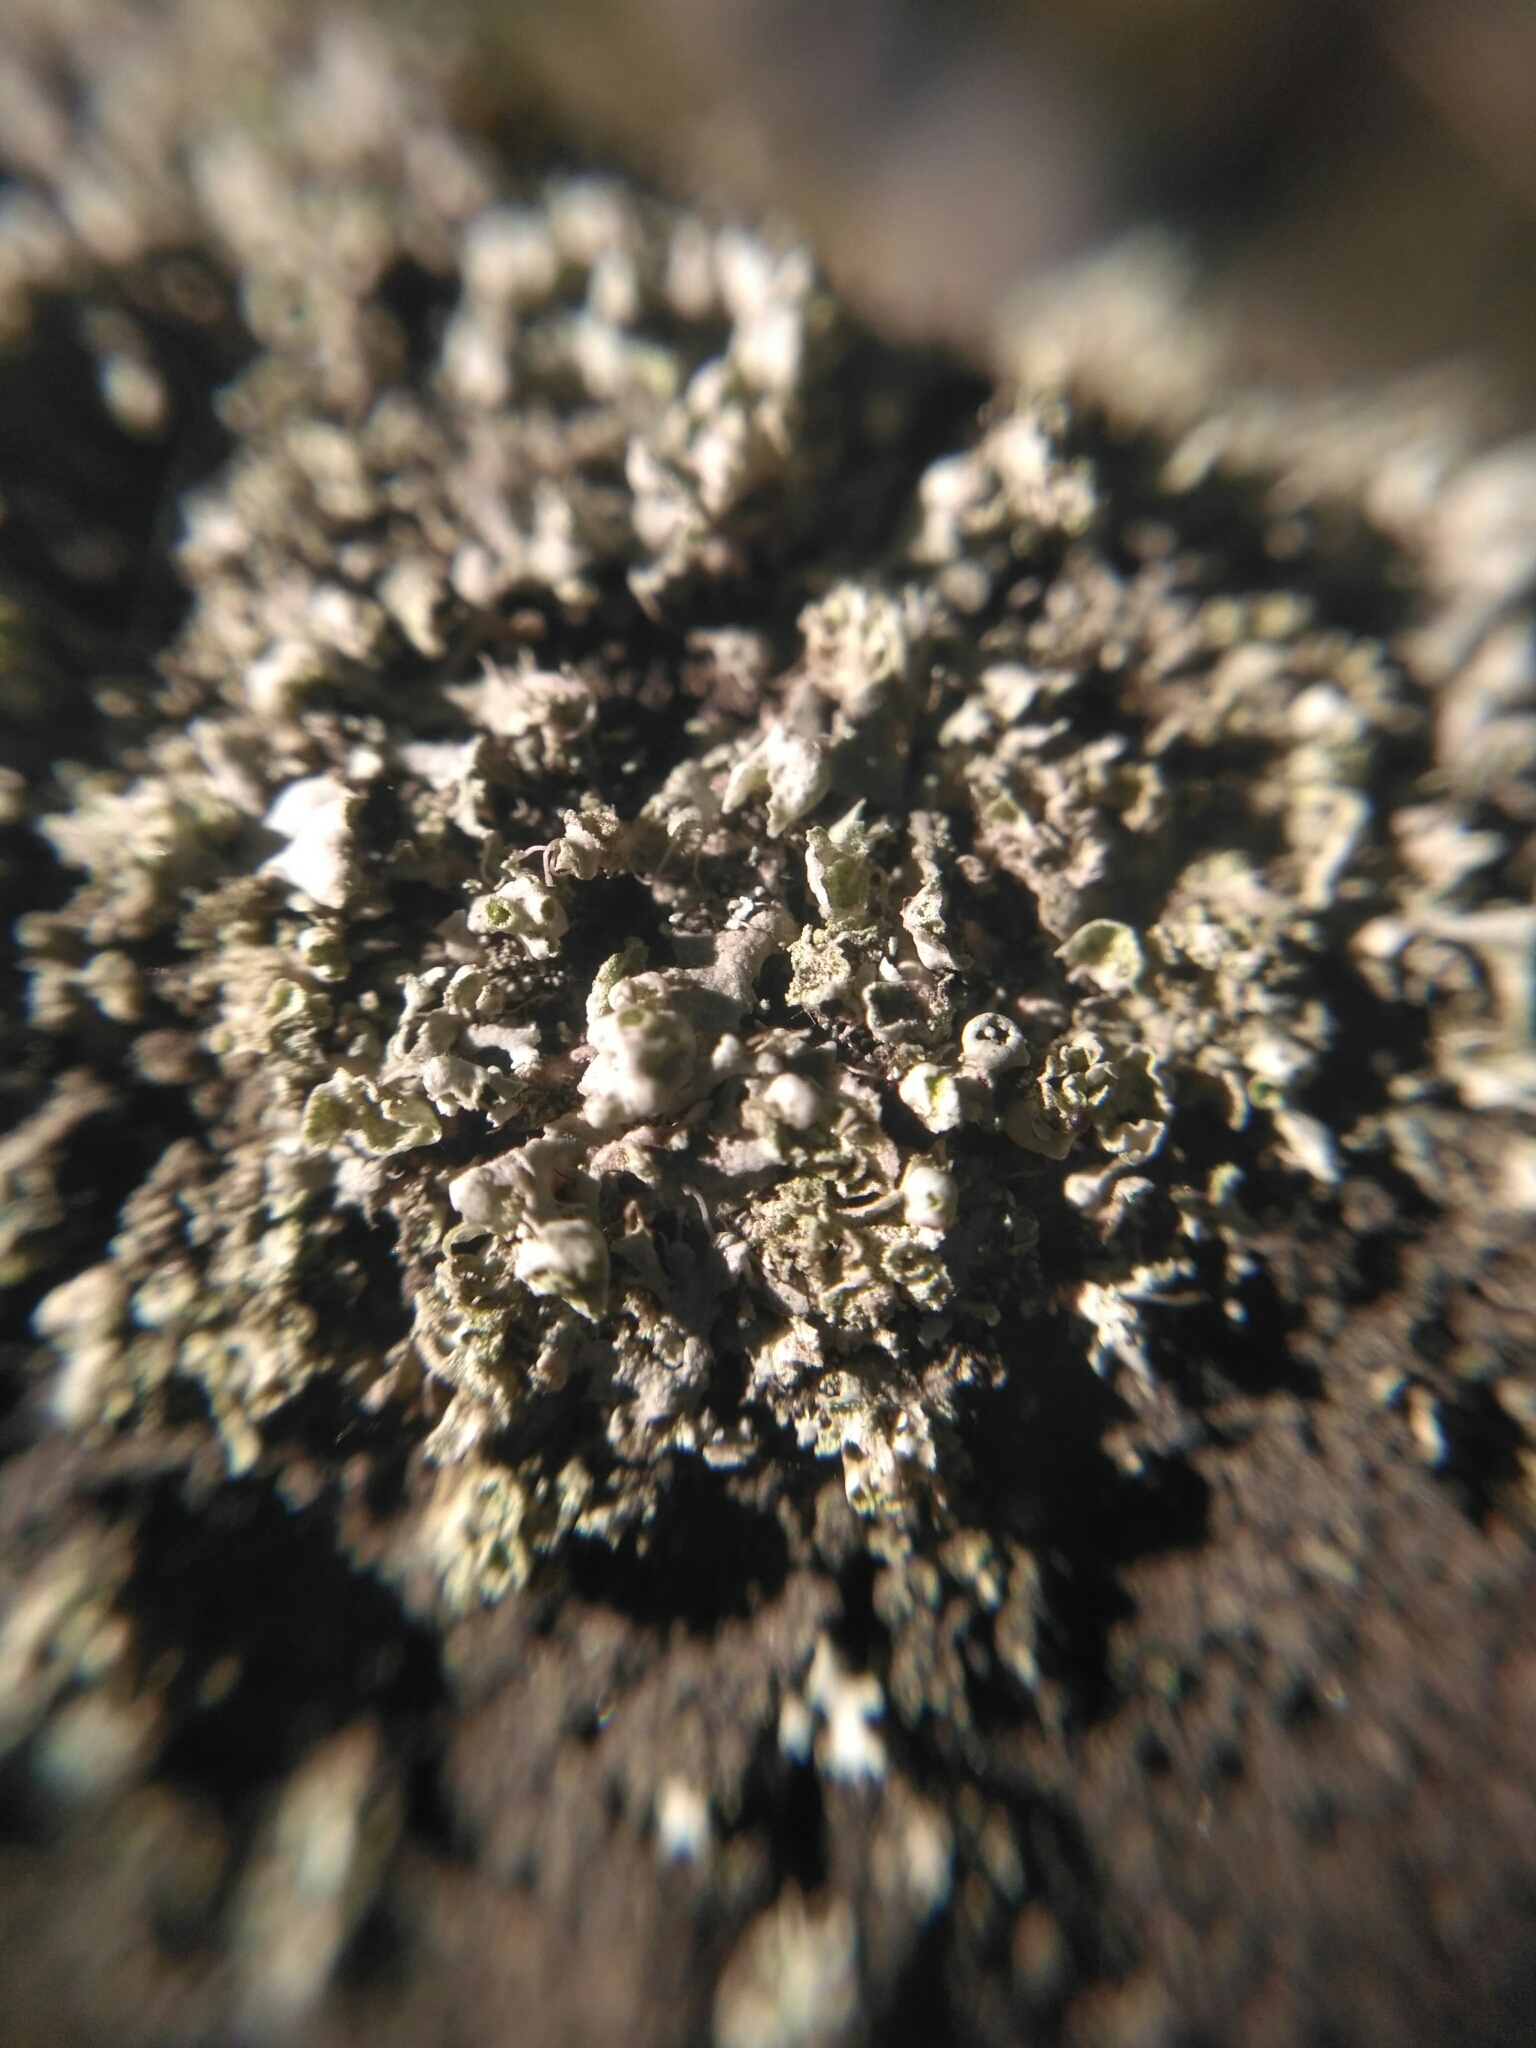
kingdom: Fungi
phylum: Ascomycota
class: Lecanoromycetes
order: Caliciales
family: Physciaceae
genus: Physcia
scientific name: Physcia adscendens
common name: Hooded rosette lichen
